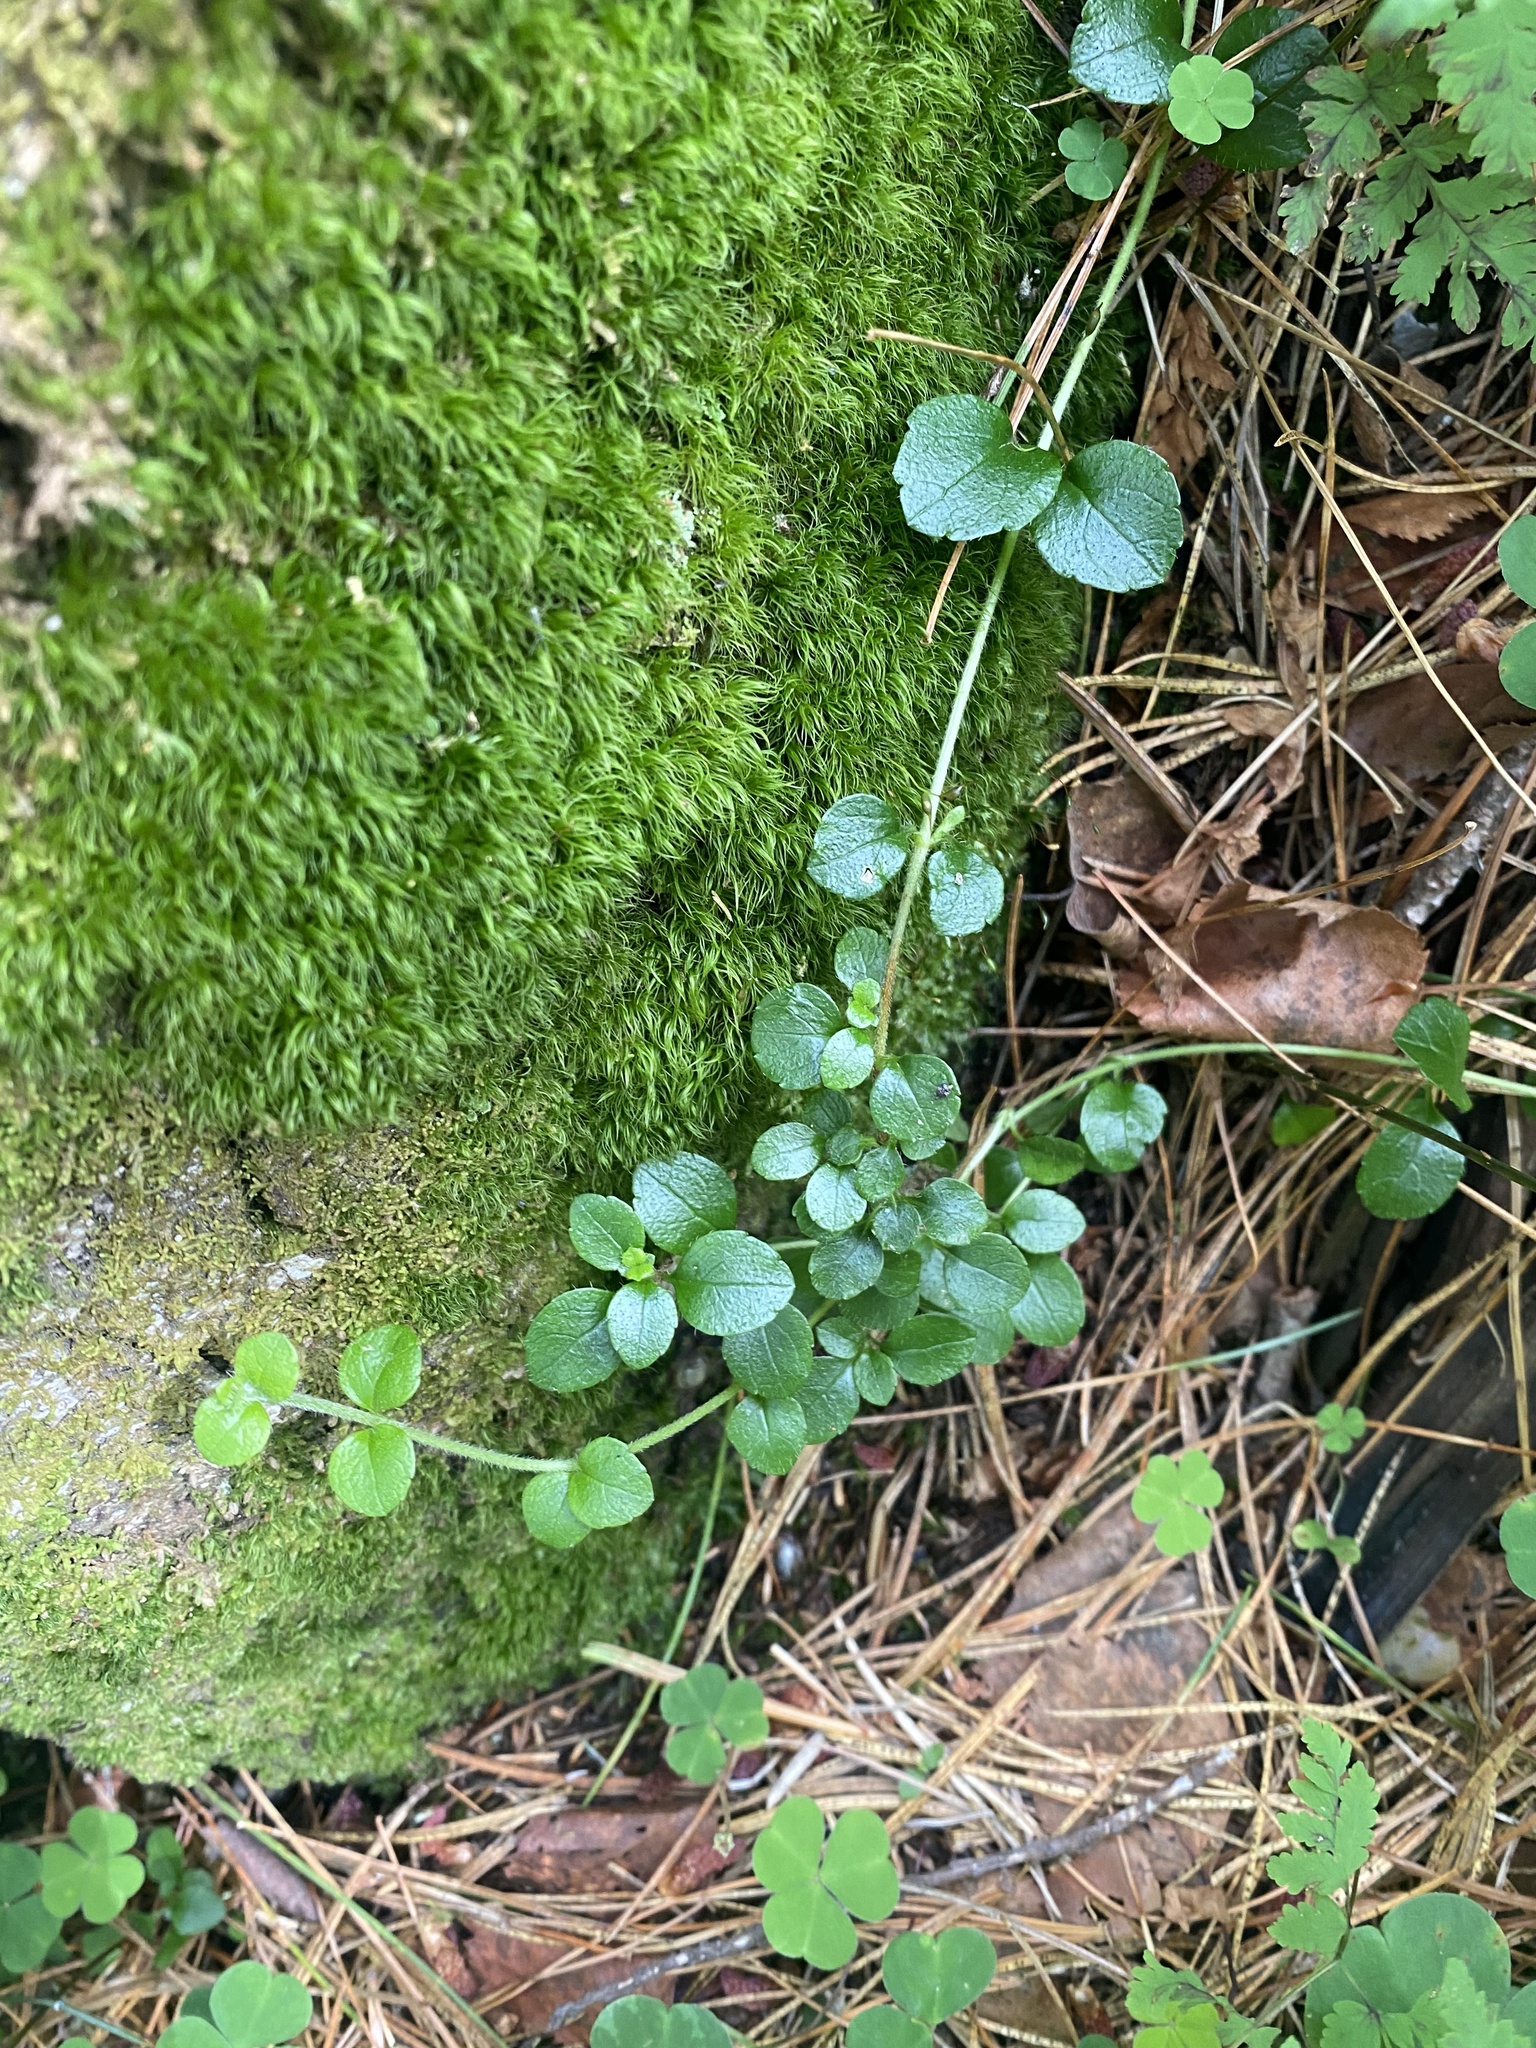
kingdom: Plantae
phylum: Tracheophyta
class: Magnoliopsida
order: Dipsacales
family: Caprifoliaceae
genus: Linnaea
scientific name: Linnaea borealis
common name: Twinflower
